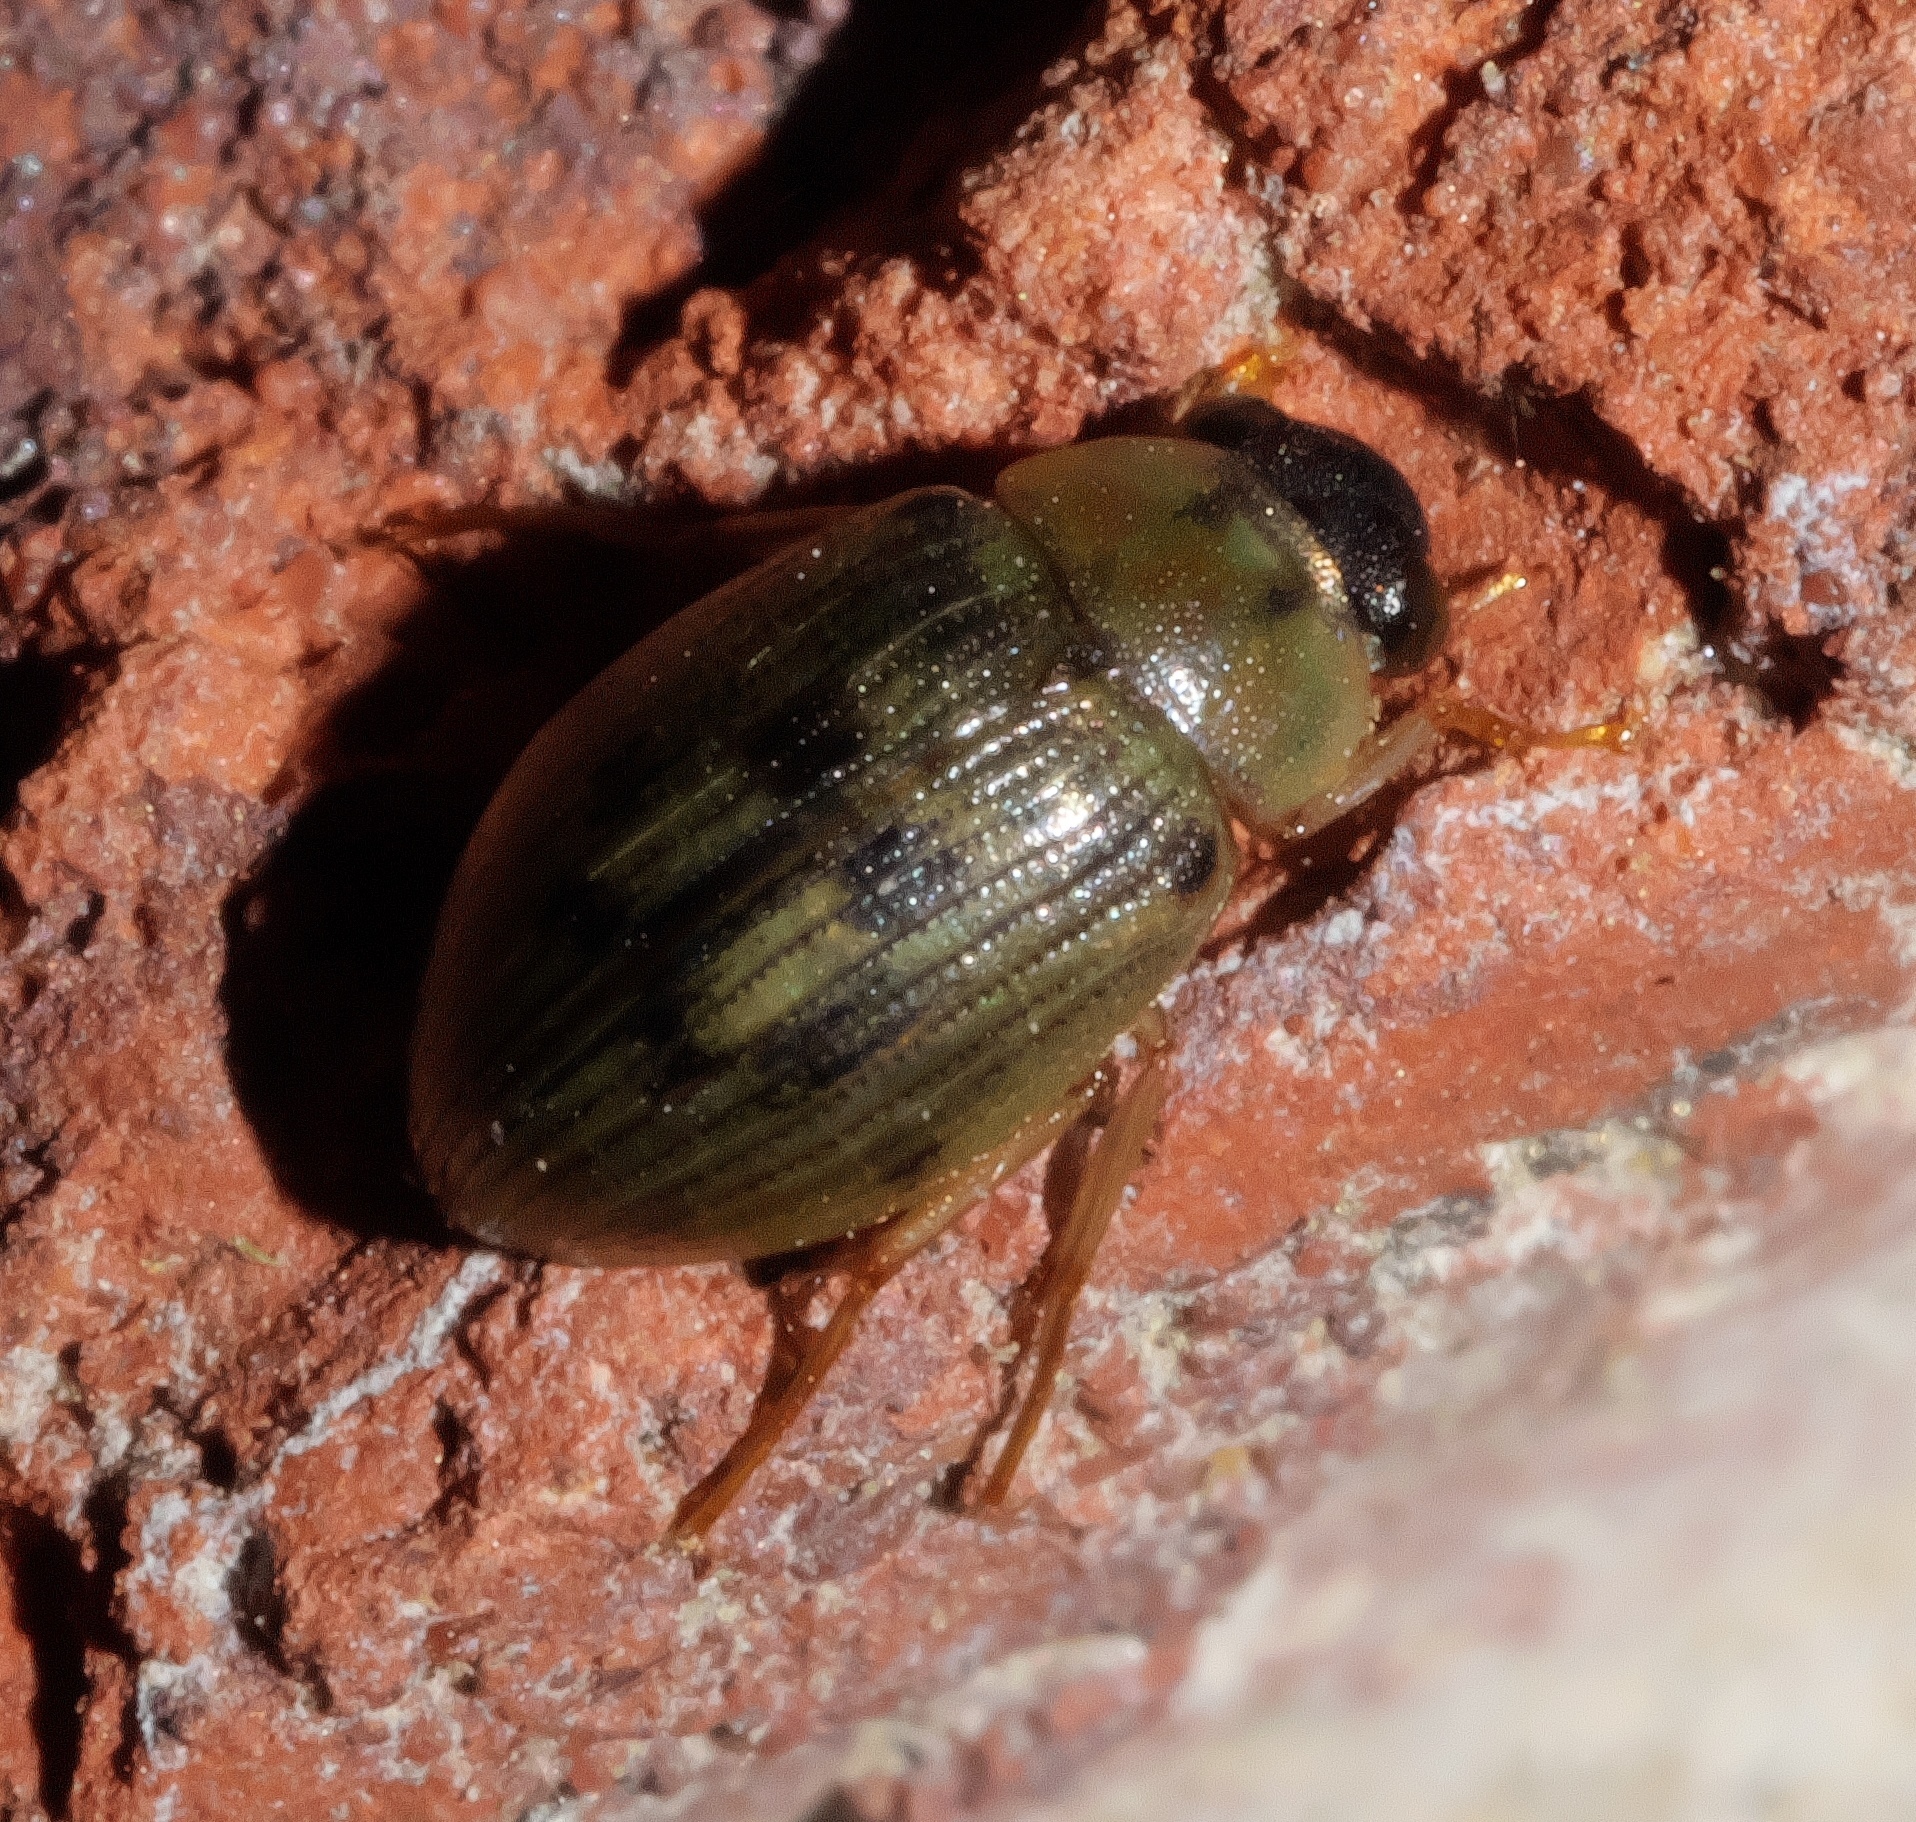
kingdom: Animalia
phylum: Arthropoda
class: Insecta
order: Coleoptera
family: Hydrophilidae
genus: Berosus
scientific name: Berosus
